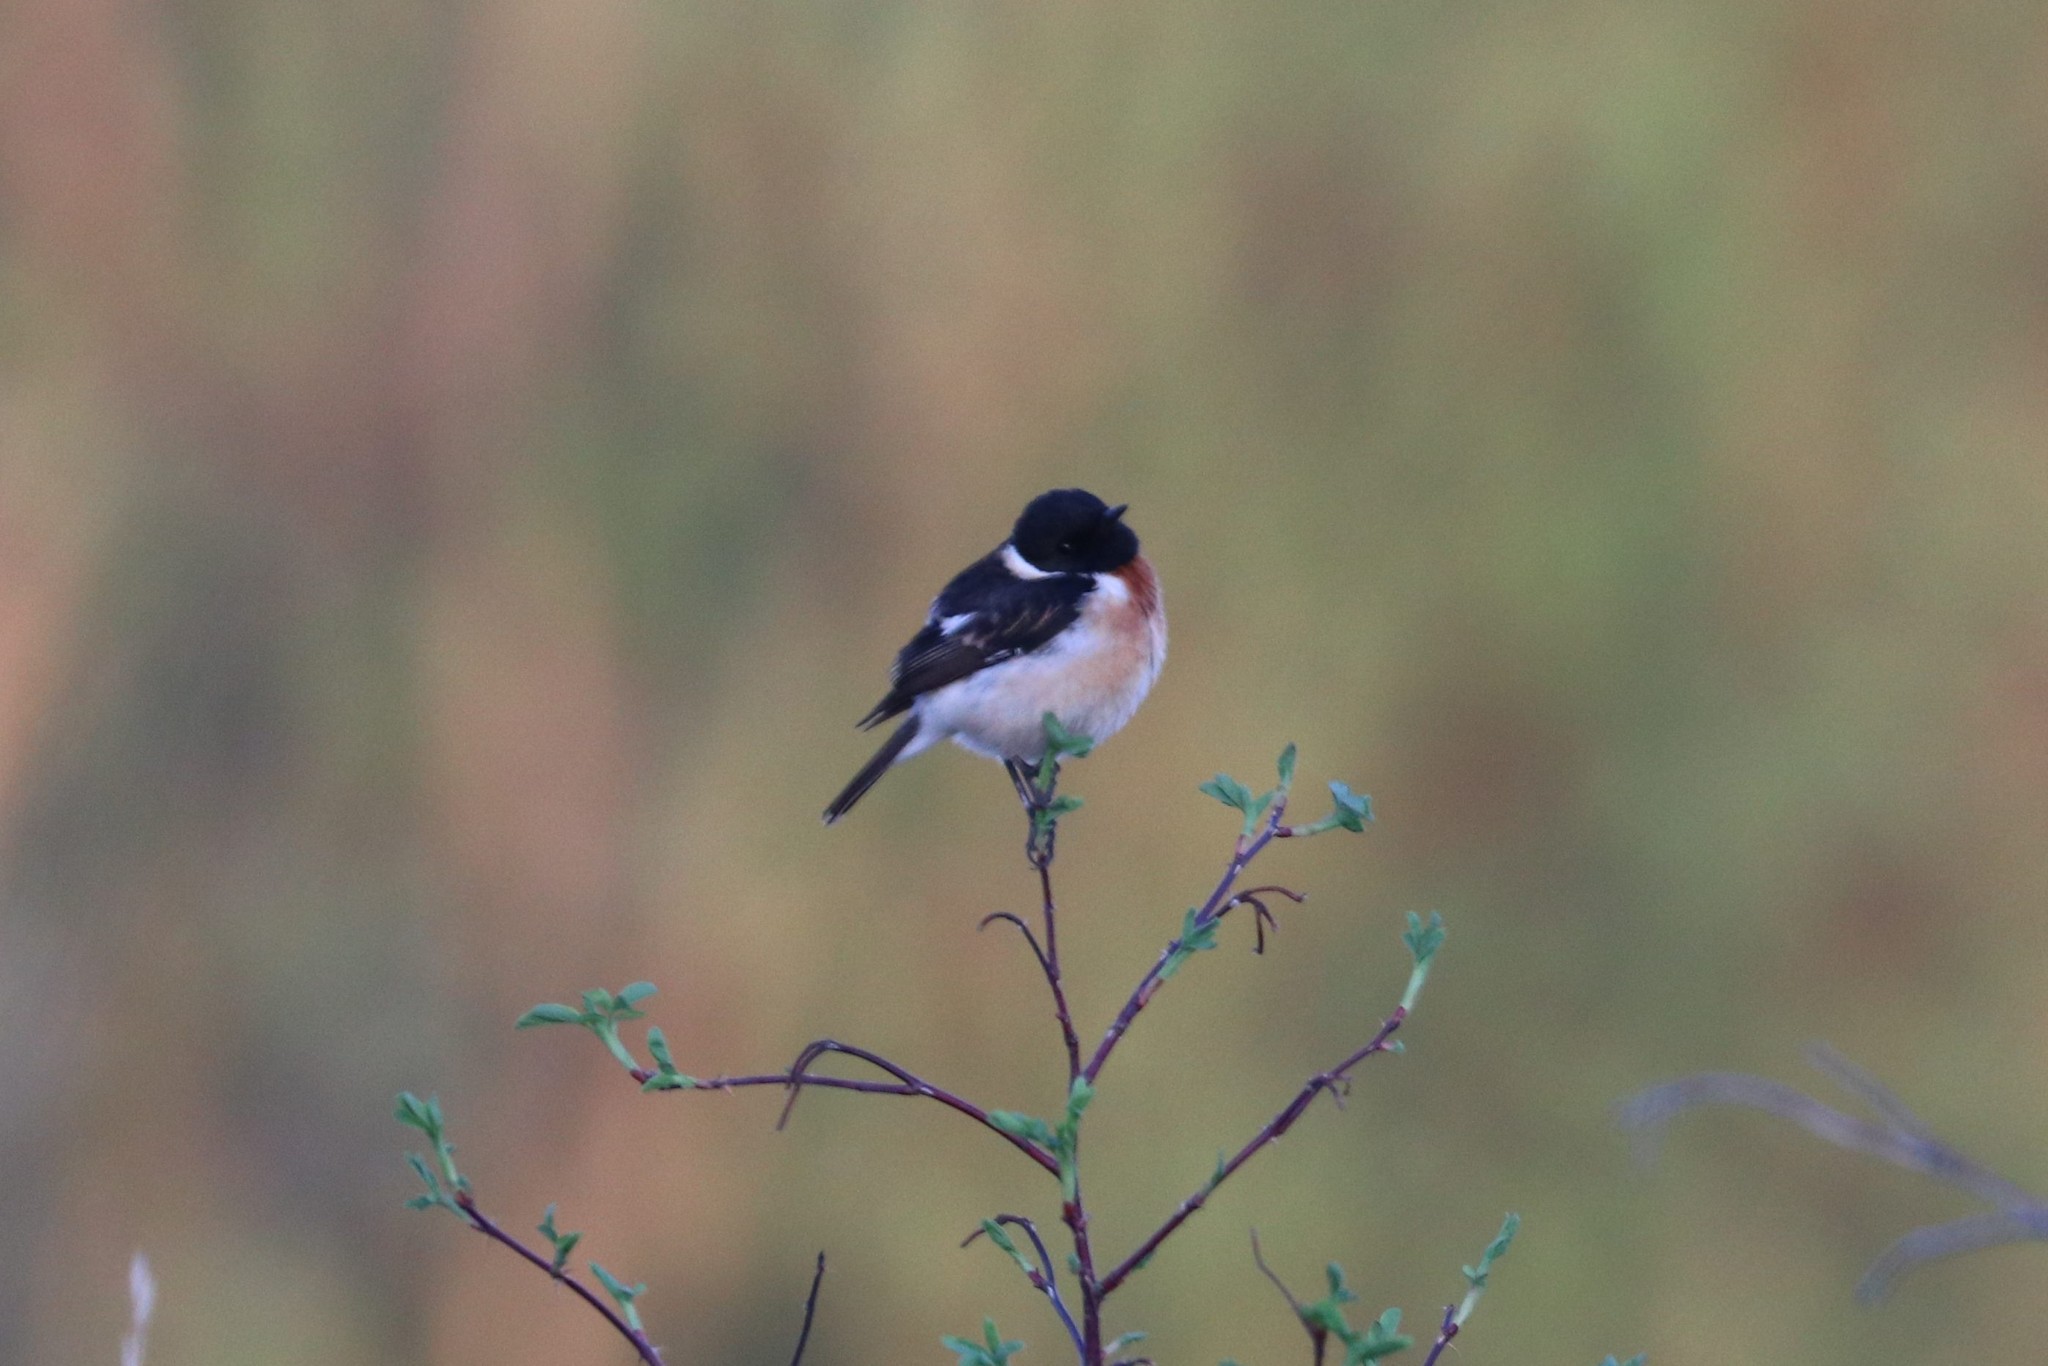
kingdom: Animalia
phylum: Chordata
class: Aves
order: Passeriformes
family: Muscicapidae
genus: Saxicola
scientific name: Saxicola maurus
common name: Siberian stonechat
